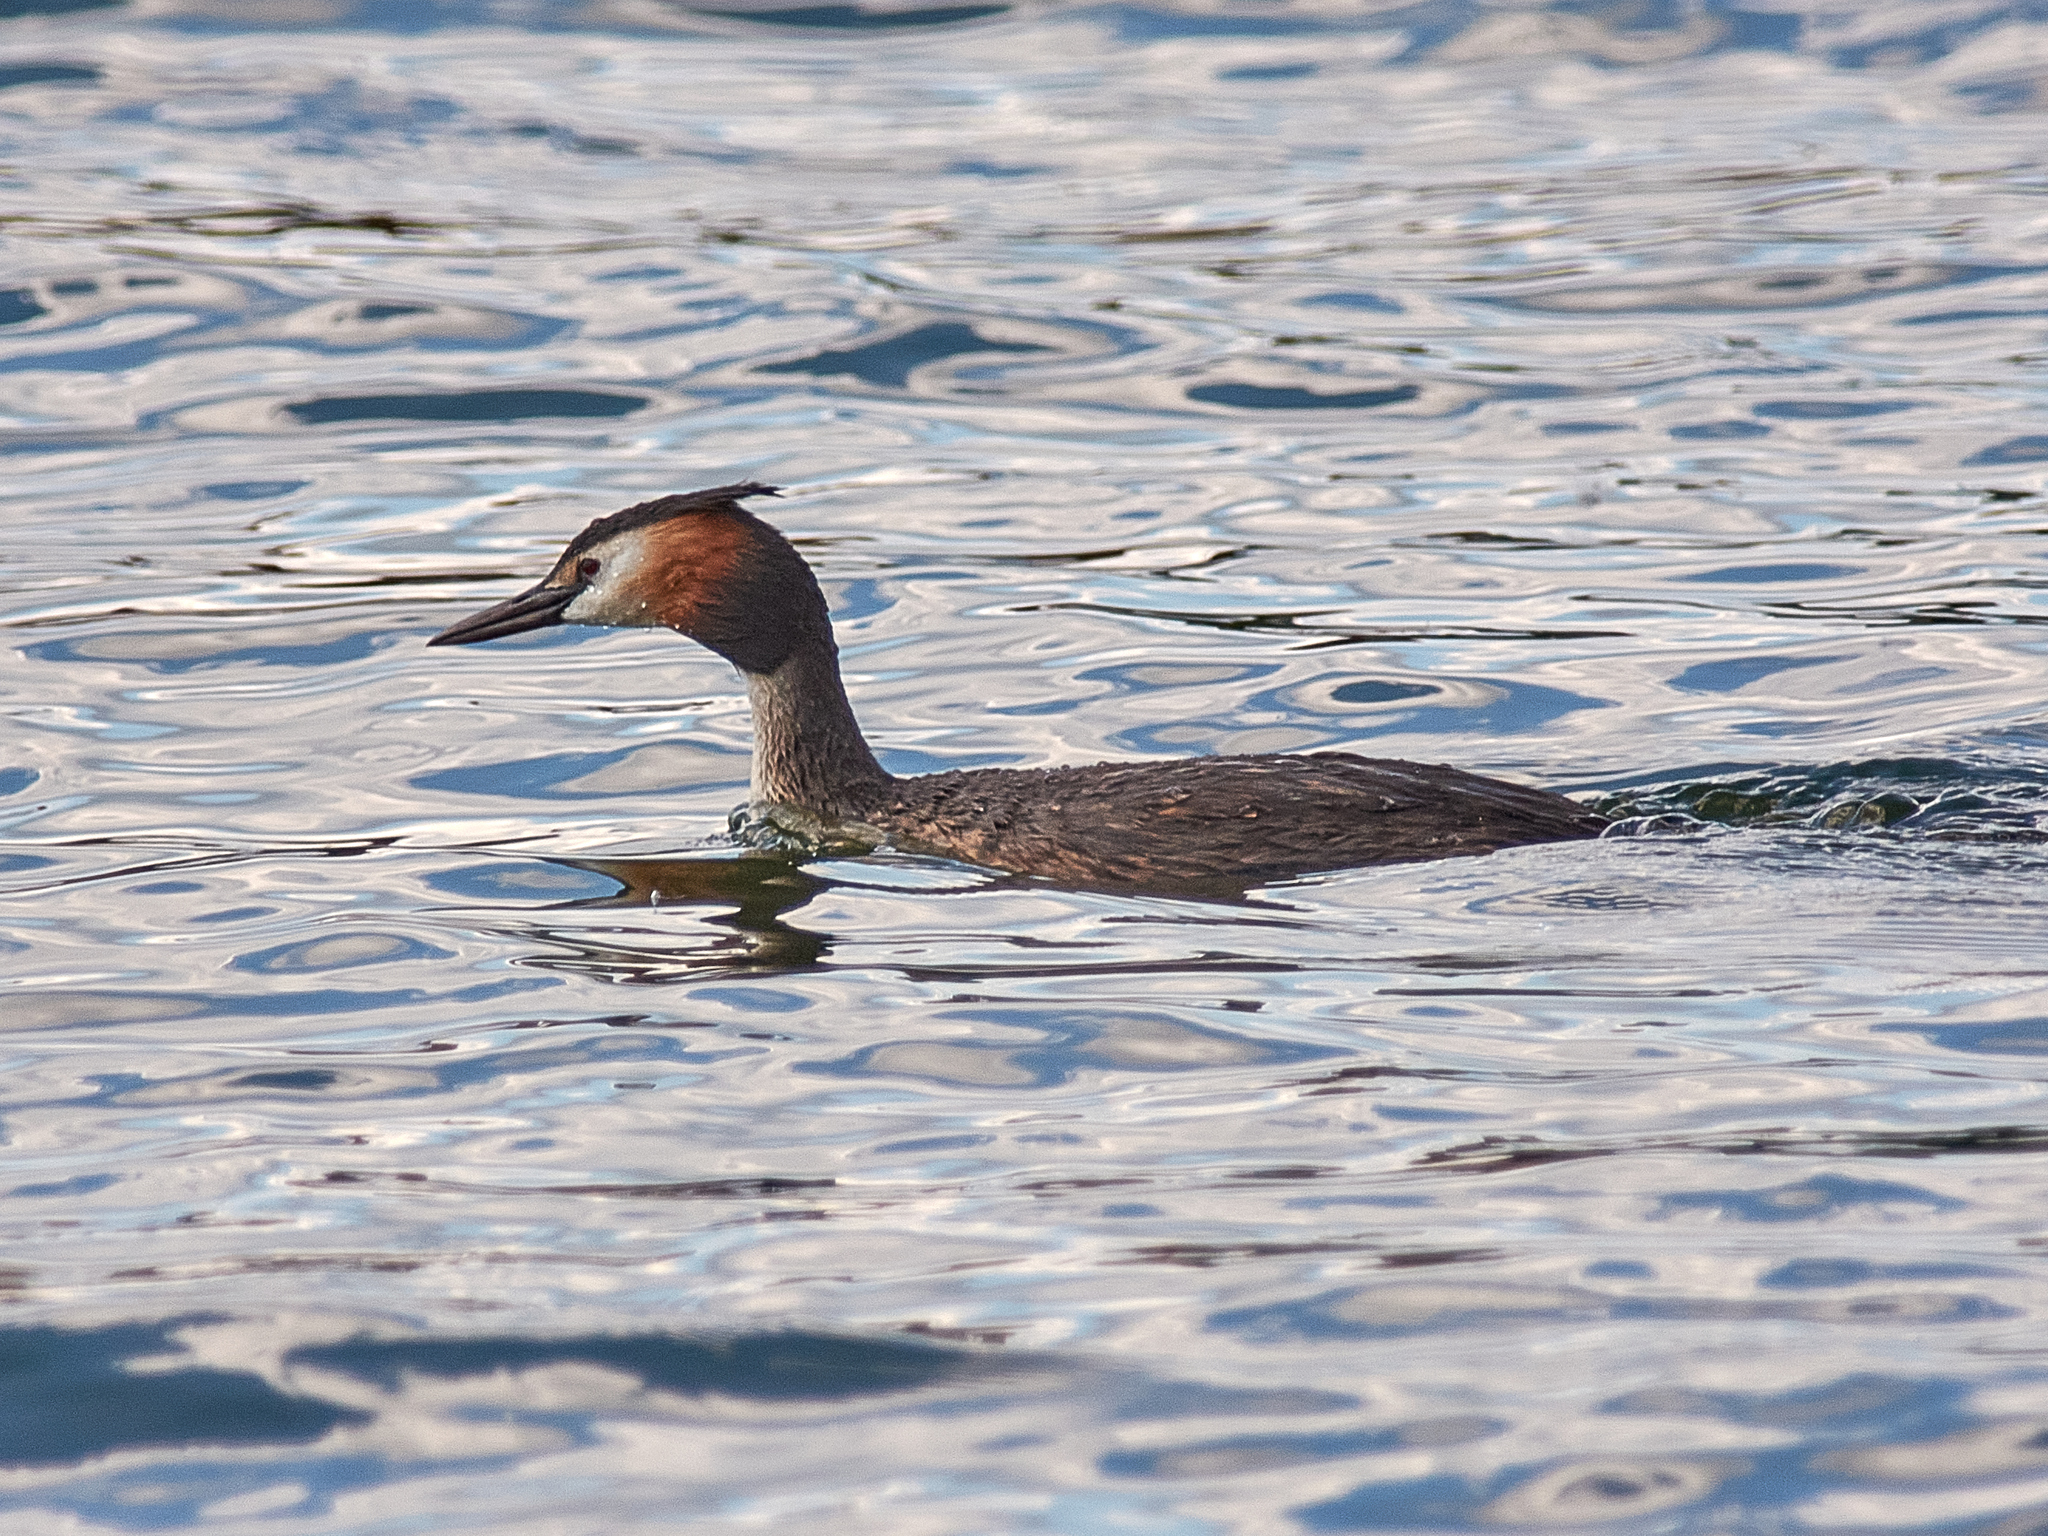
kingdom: Animalia
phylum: Chordata
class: Aves
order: Podicipediformes
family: Podicipedidae
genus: Podiceps
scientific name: Podiceps cristatus
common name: Great crested grebe
